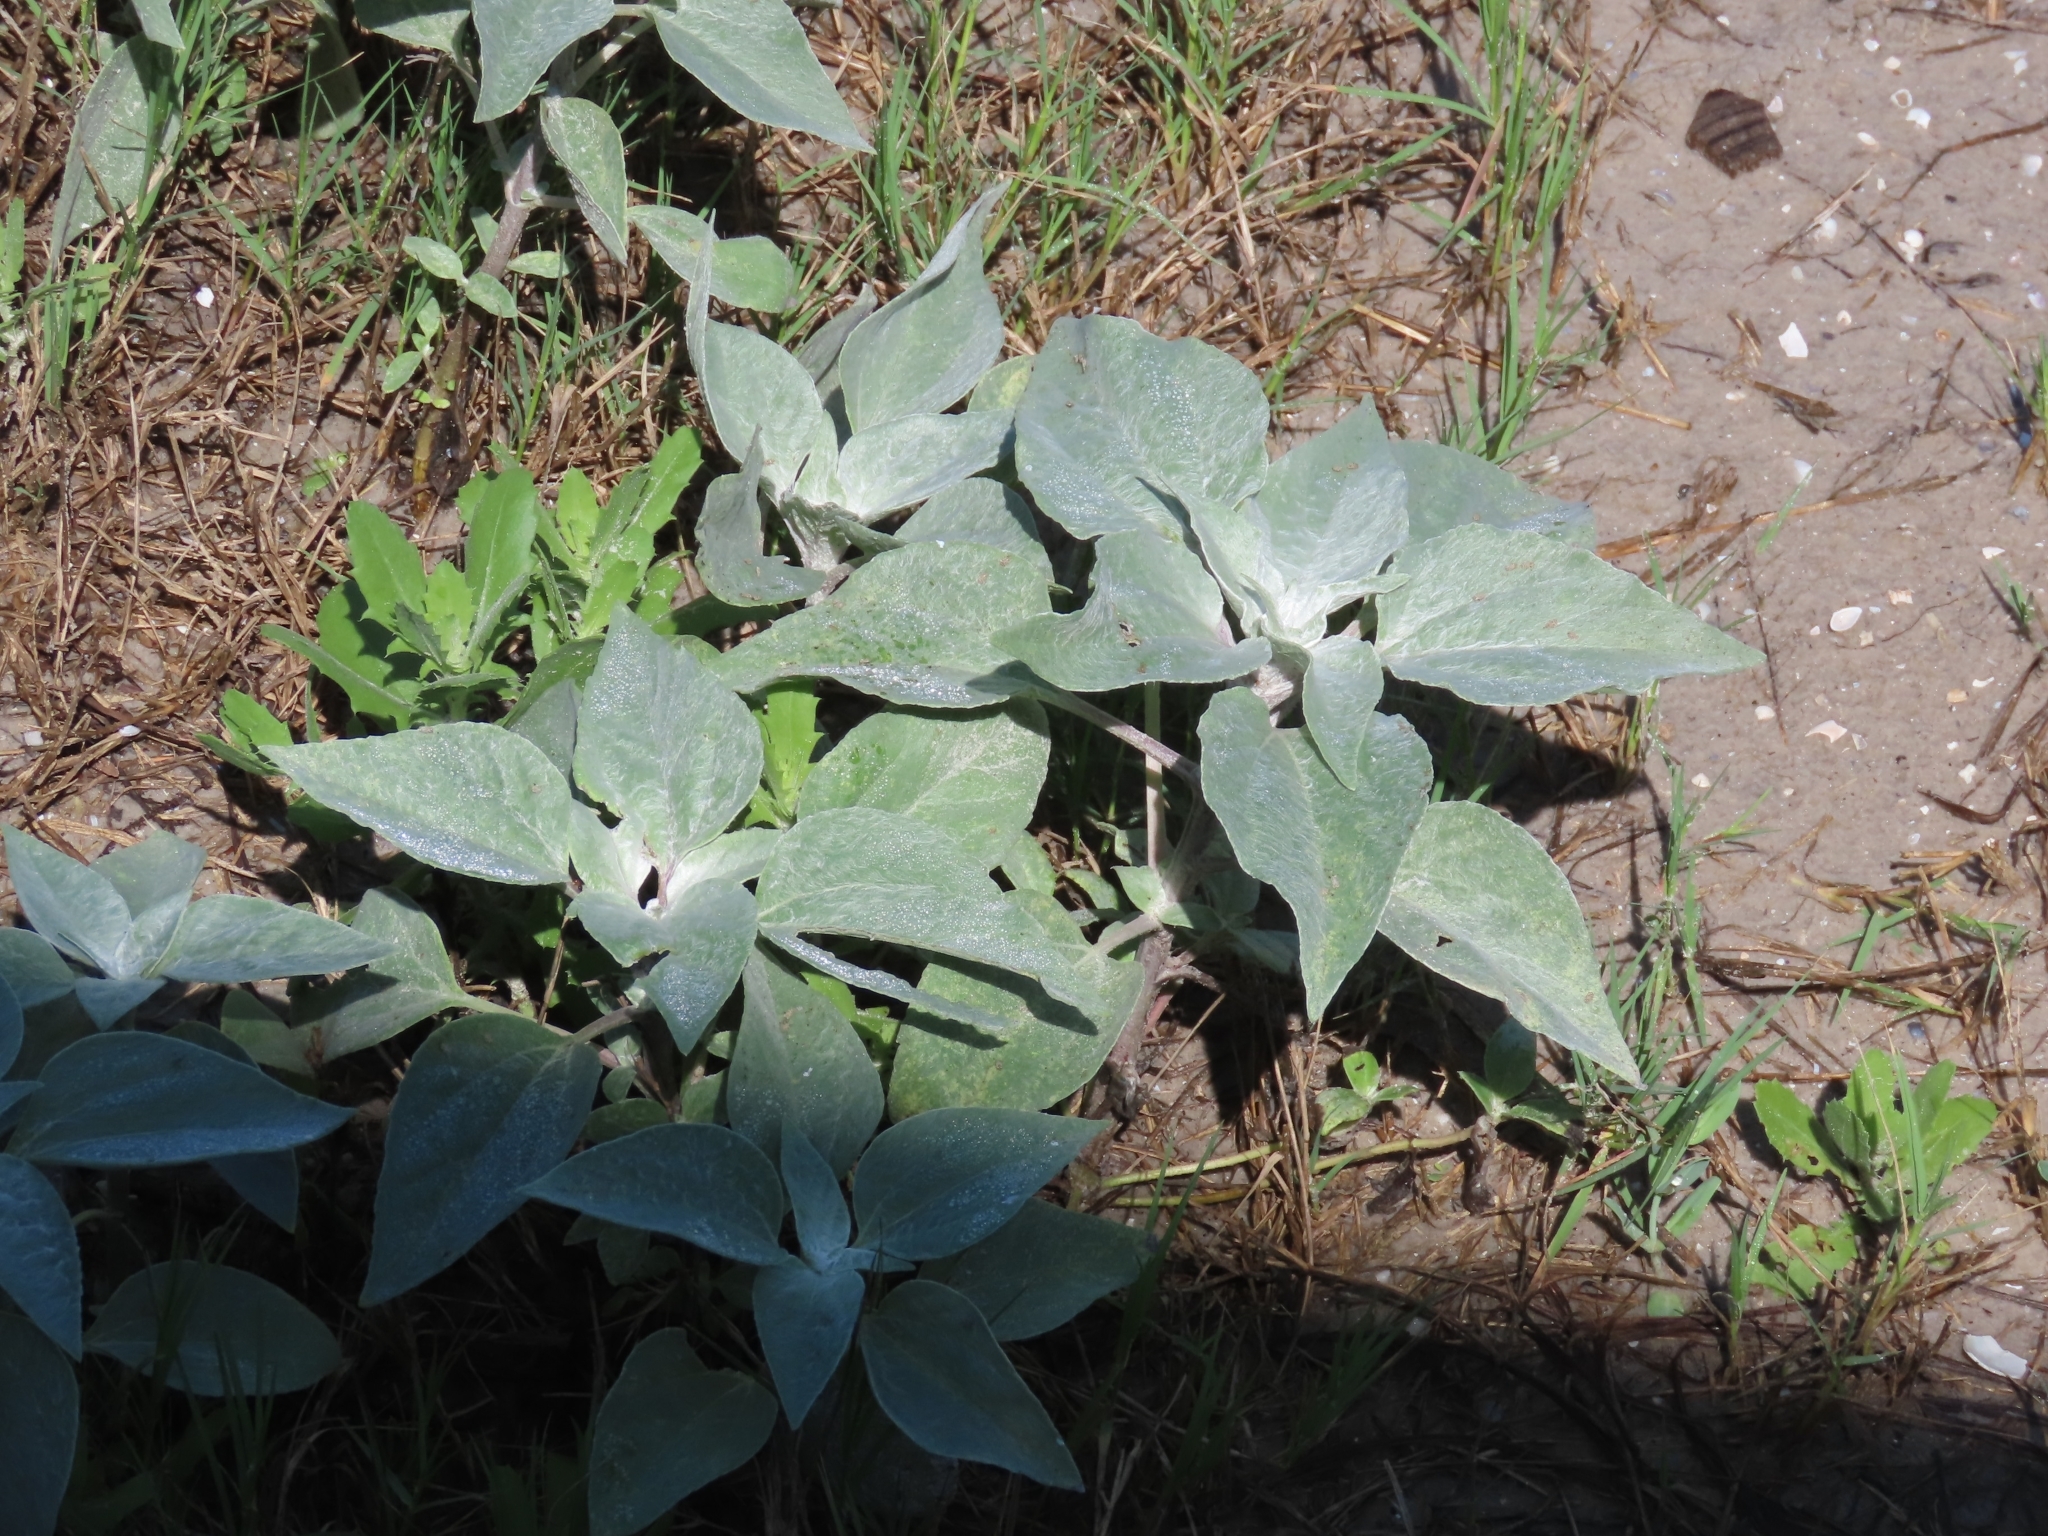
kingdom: Plantae
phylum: Tracheophyta
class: Magnoliopsida
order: Asterales
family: Asteraceae
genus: Helianthus
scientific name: Helianthus argophyllus
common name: Silverleaf sunflower
